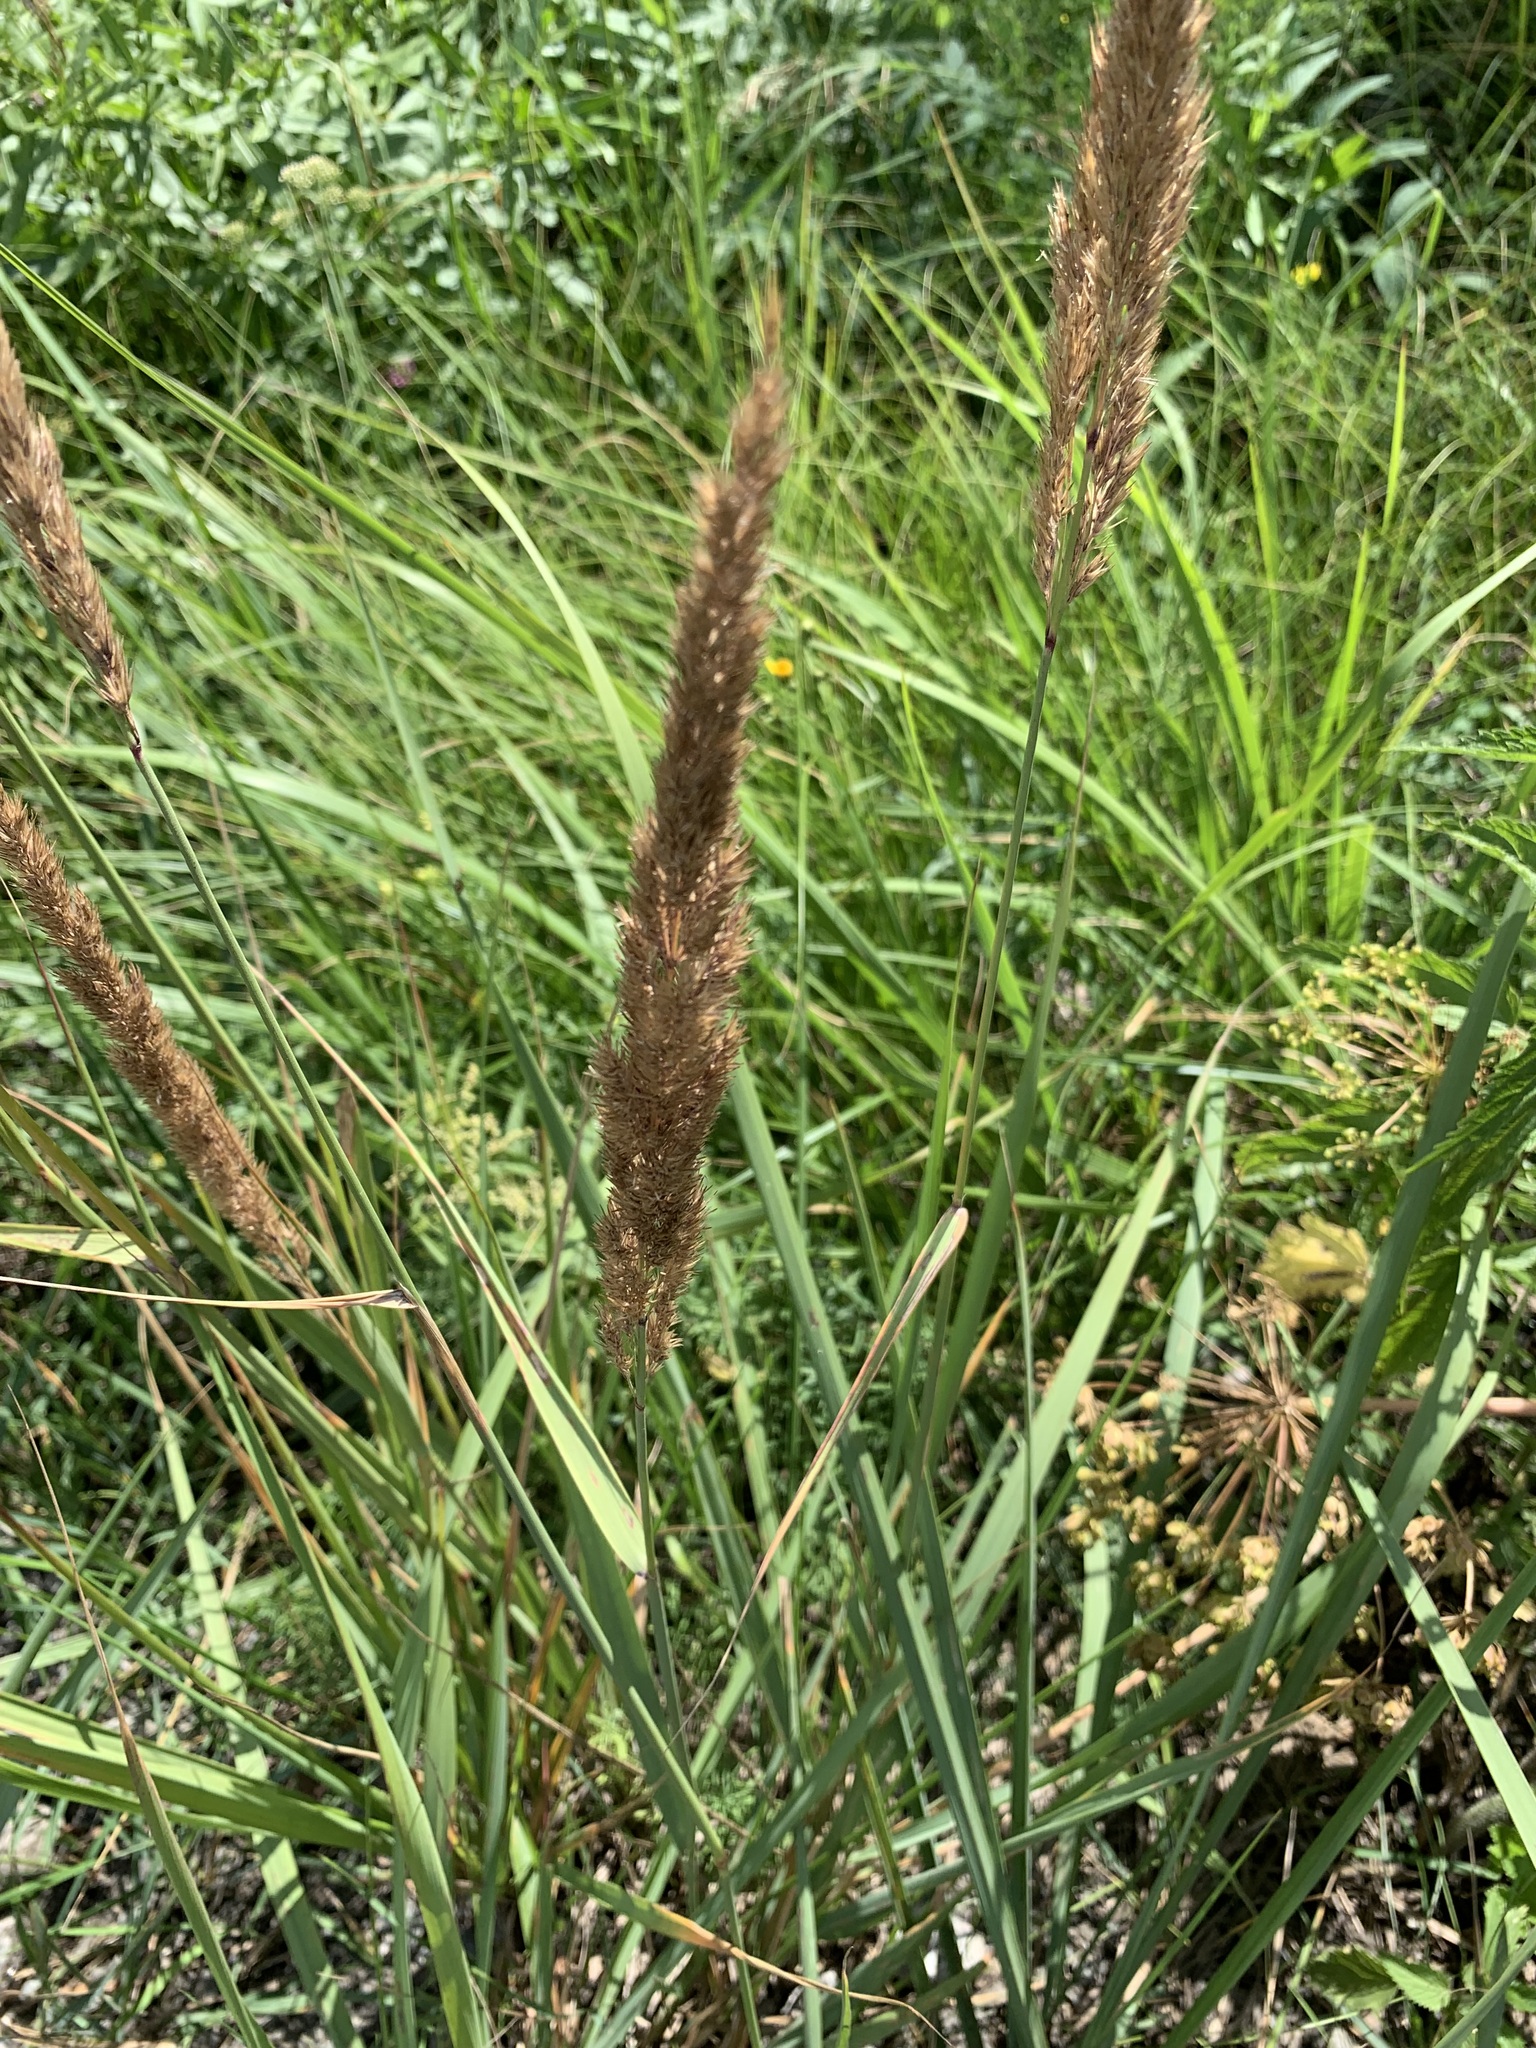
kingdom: Plantae
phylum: Tracheophyta
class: Liliopsida
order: Poales
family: Poaceae
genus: Calamagrostis
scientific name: Calamagrostis epigejos
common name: Wood small-reed
